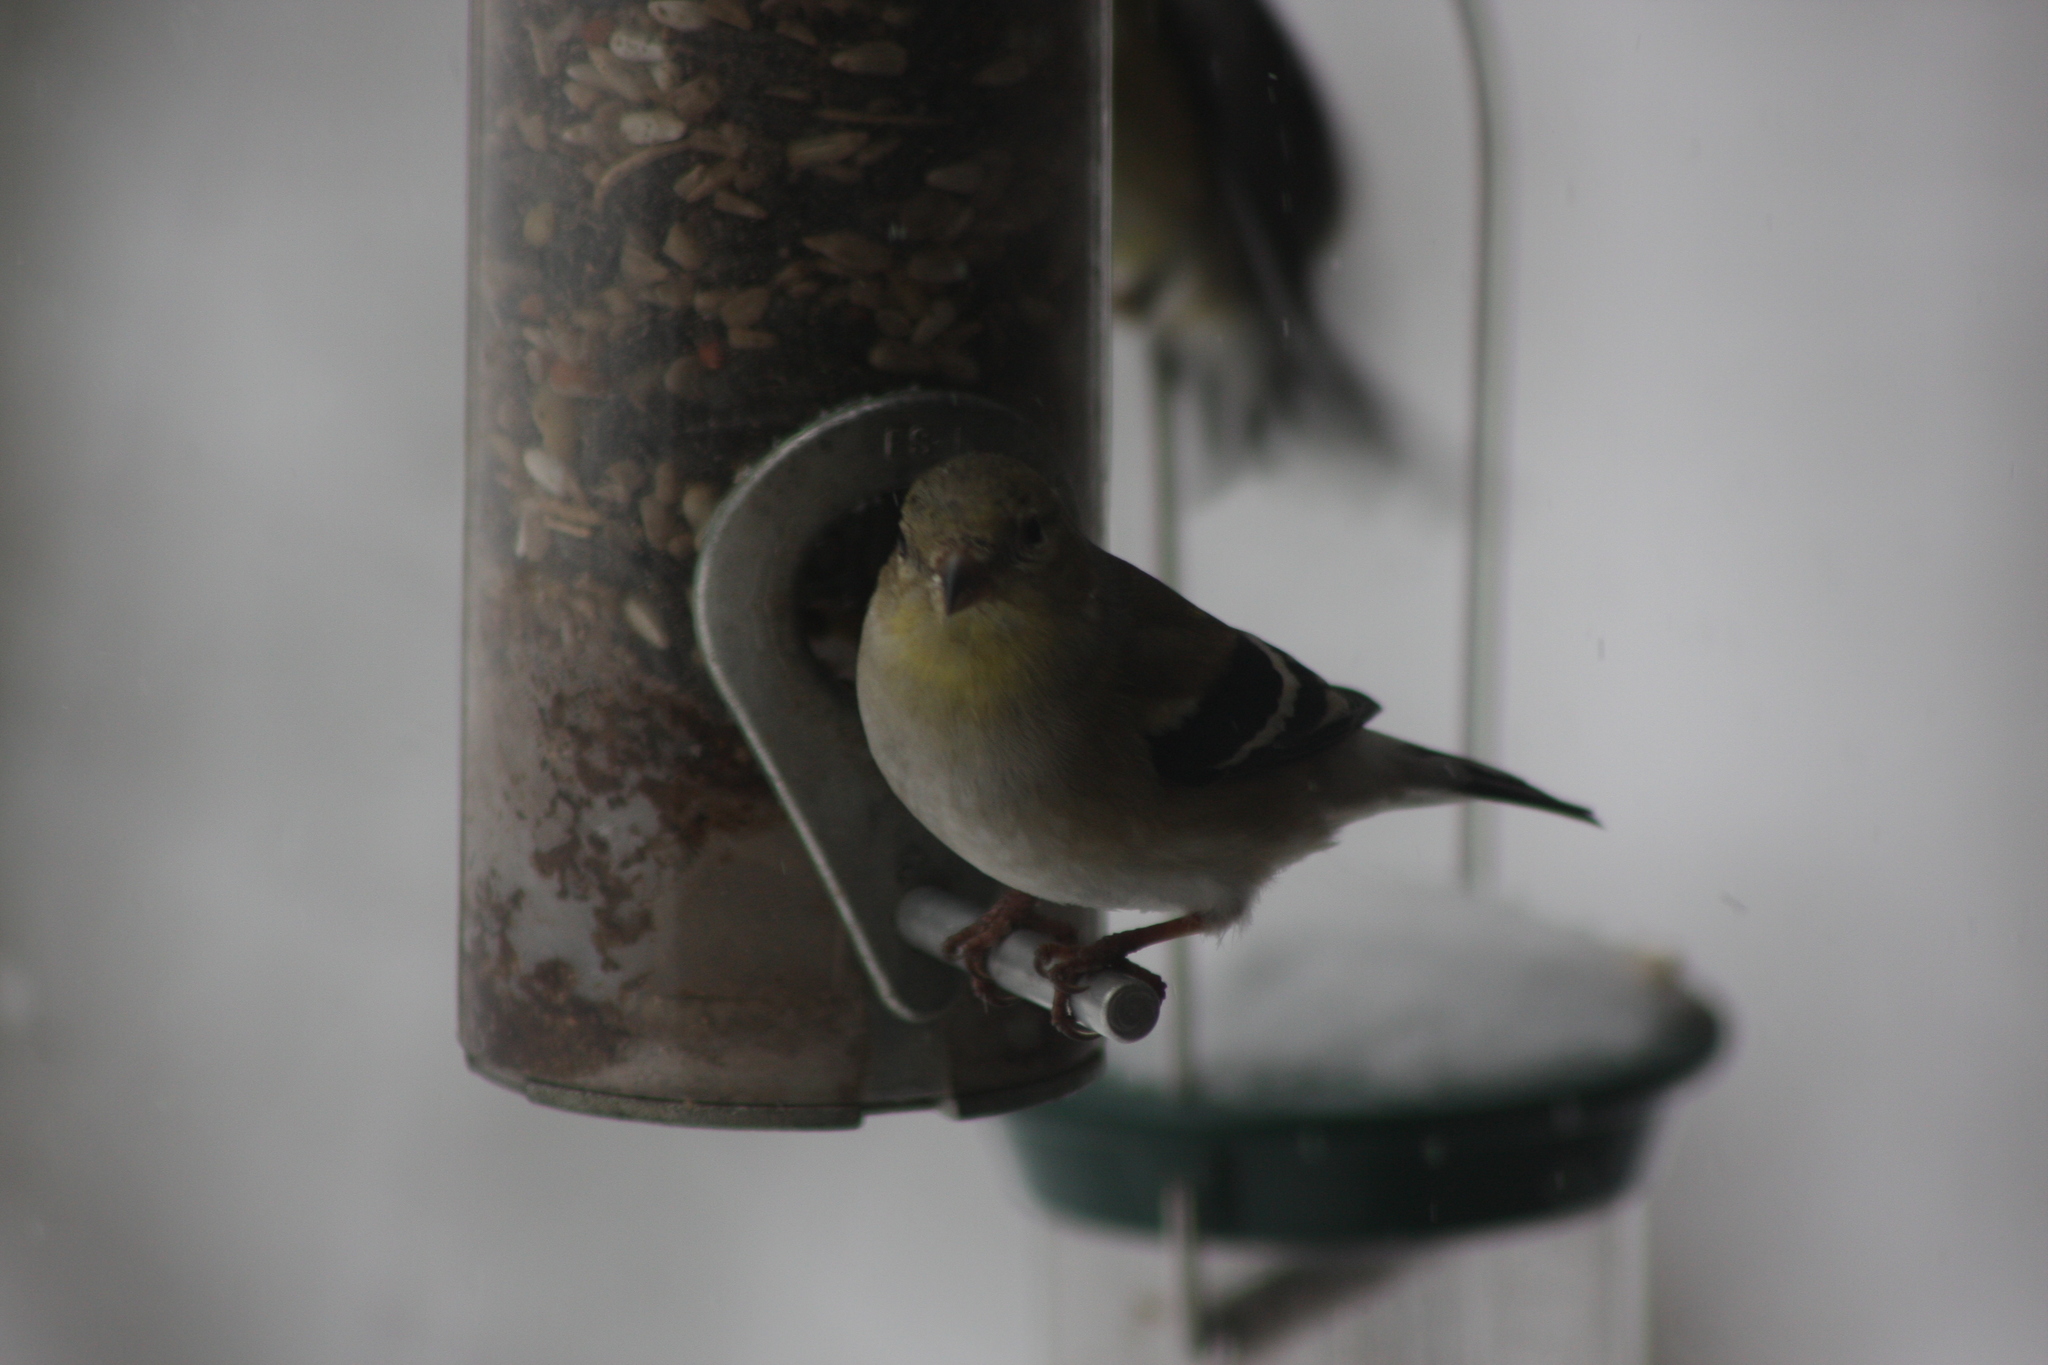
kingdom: Animalia
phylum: Chordata
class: Aves
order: Passeriformes
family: Fringillidae
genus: Spinus
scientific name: Spinus tristis
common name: American goldfinch
